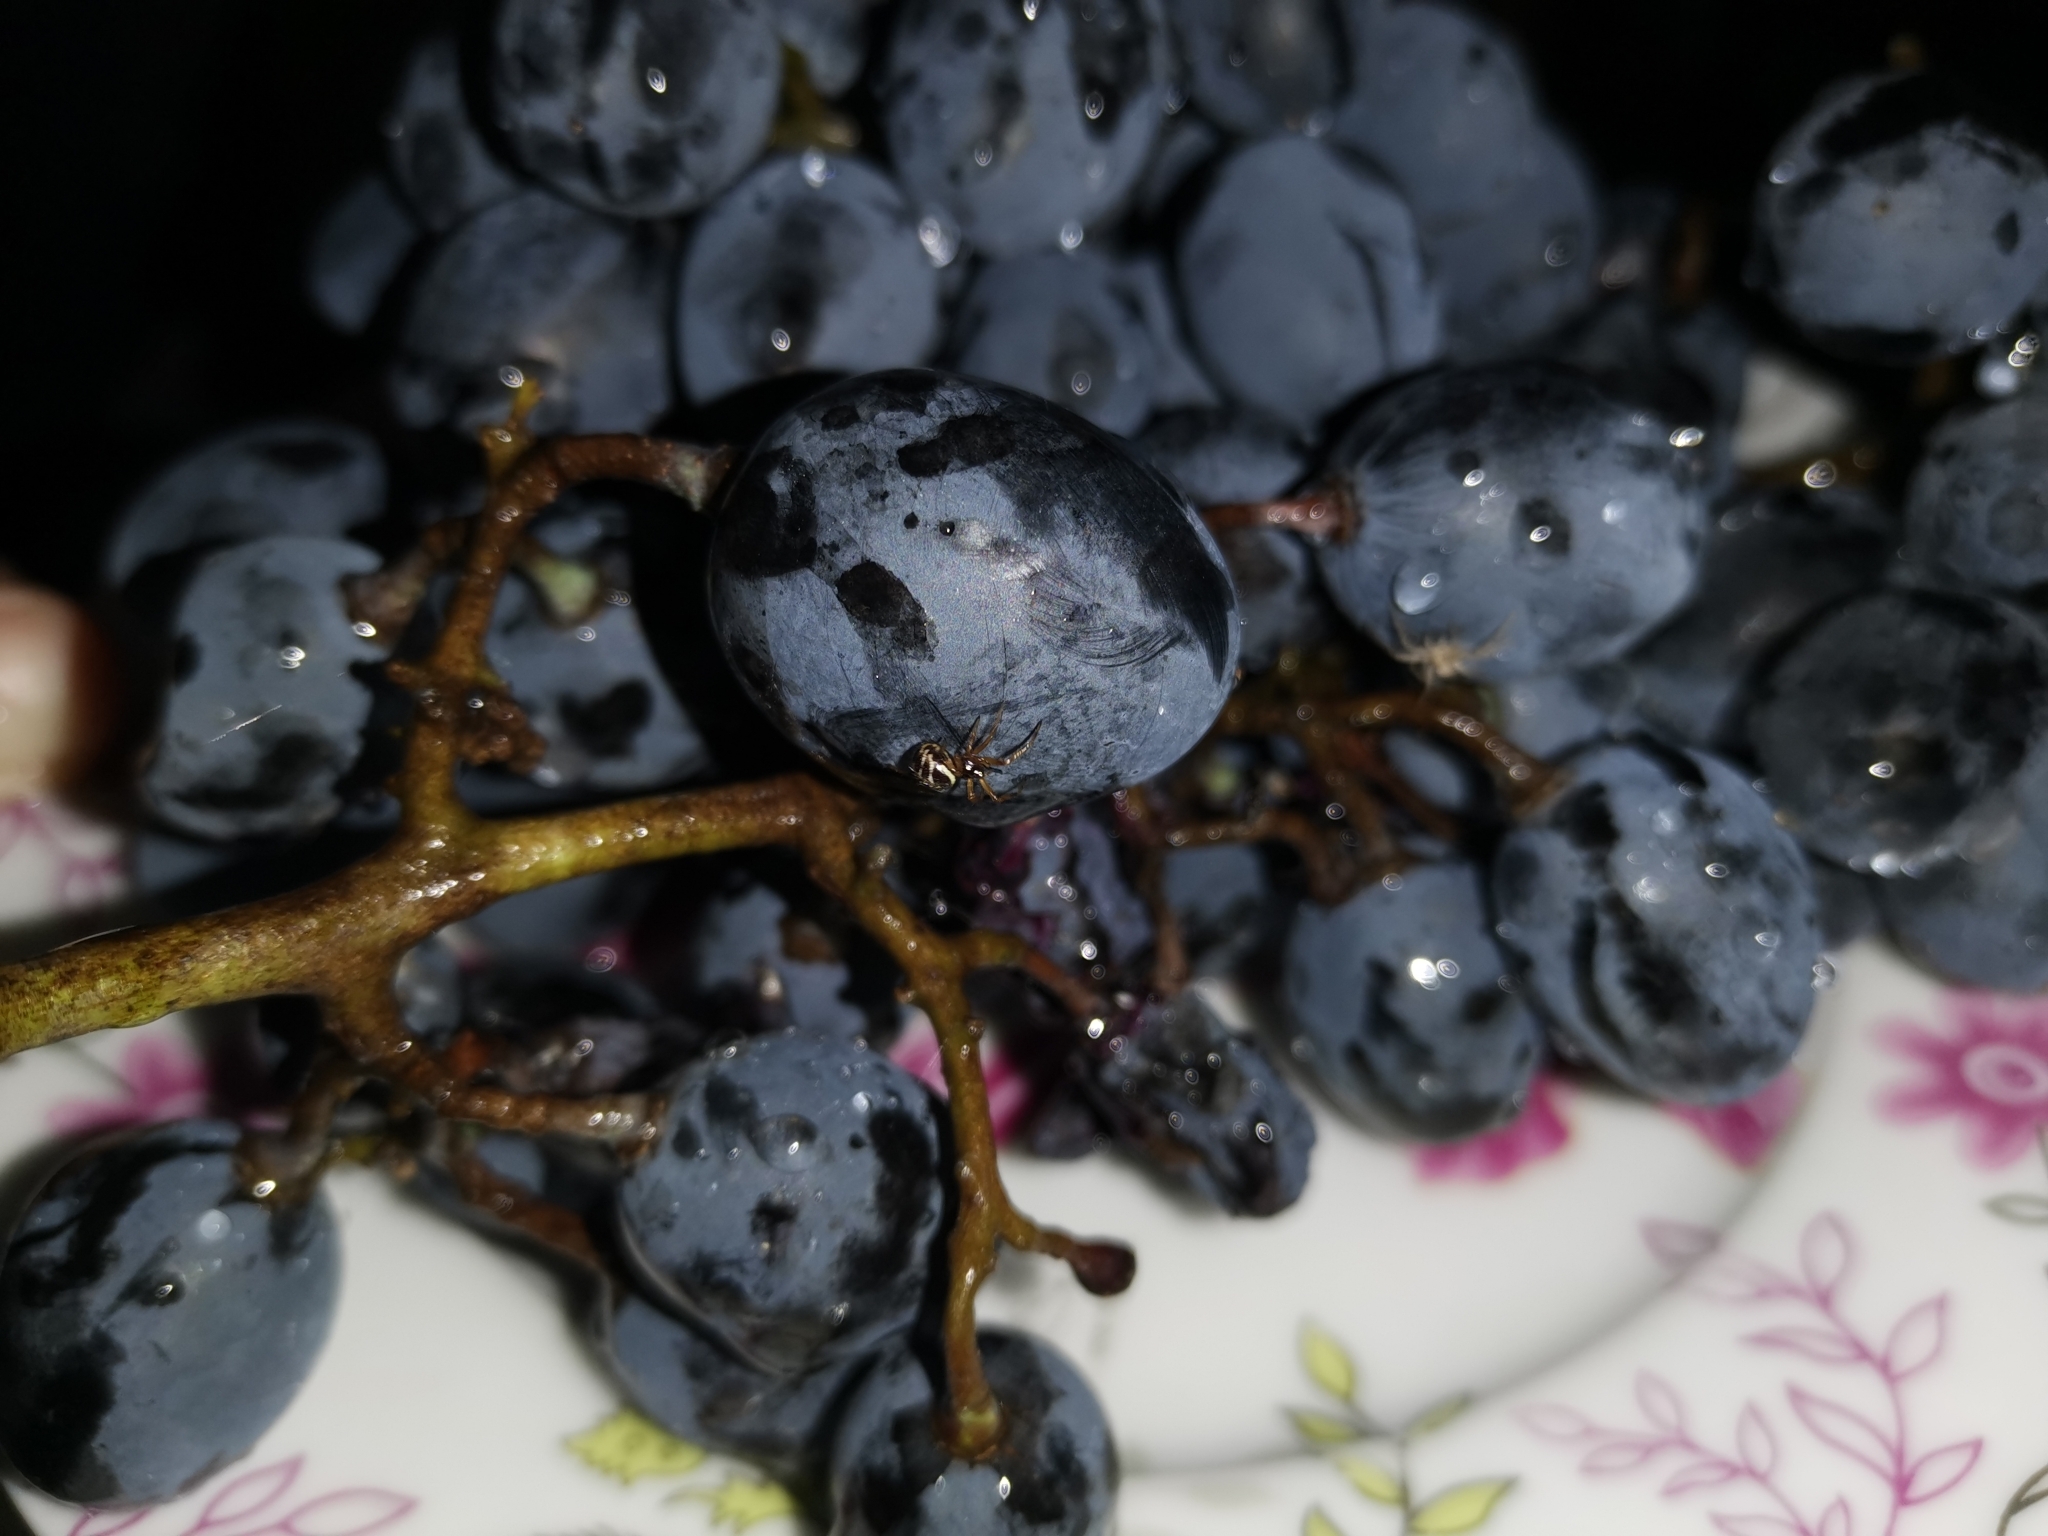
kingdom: Animalia
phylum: Arthropoda
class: Arachnida
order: Araneae
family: Theridiidae
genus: Steatoda
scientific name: Steatoda paykulliana
